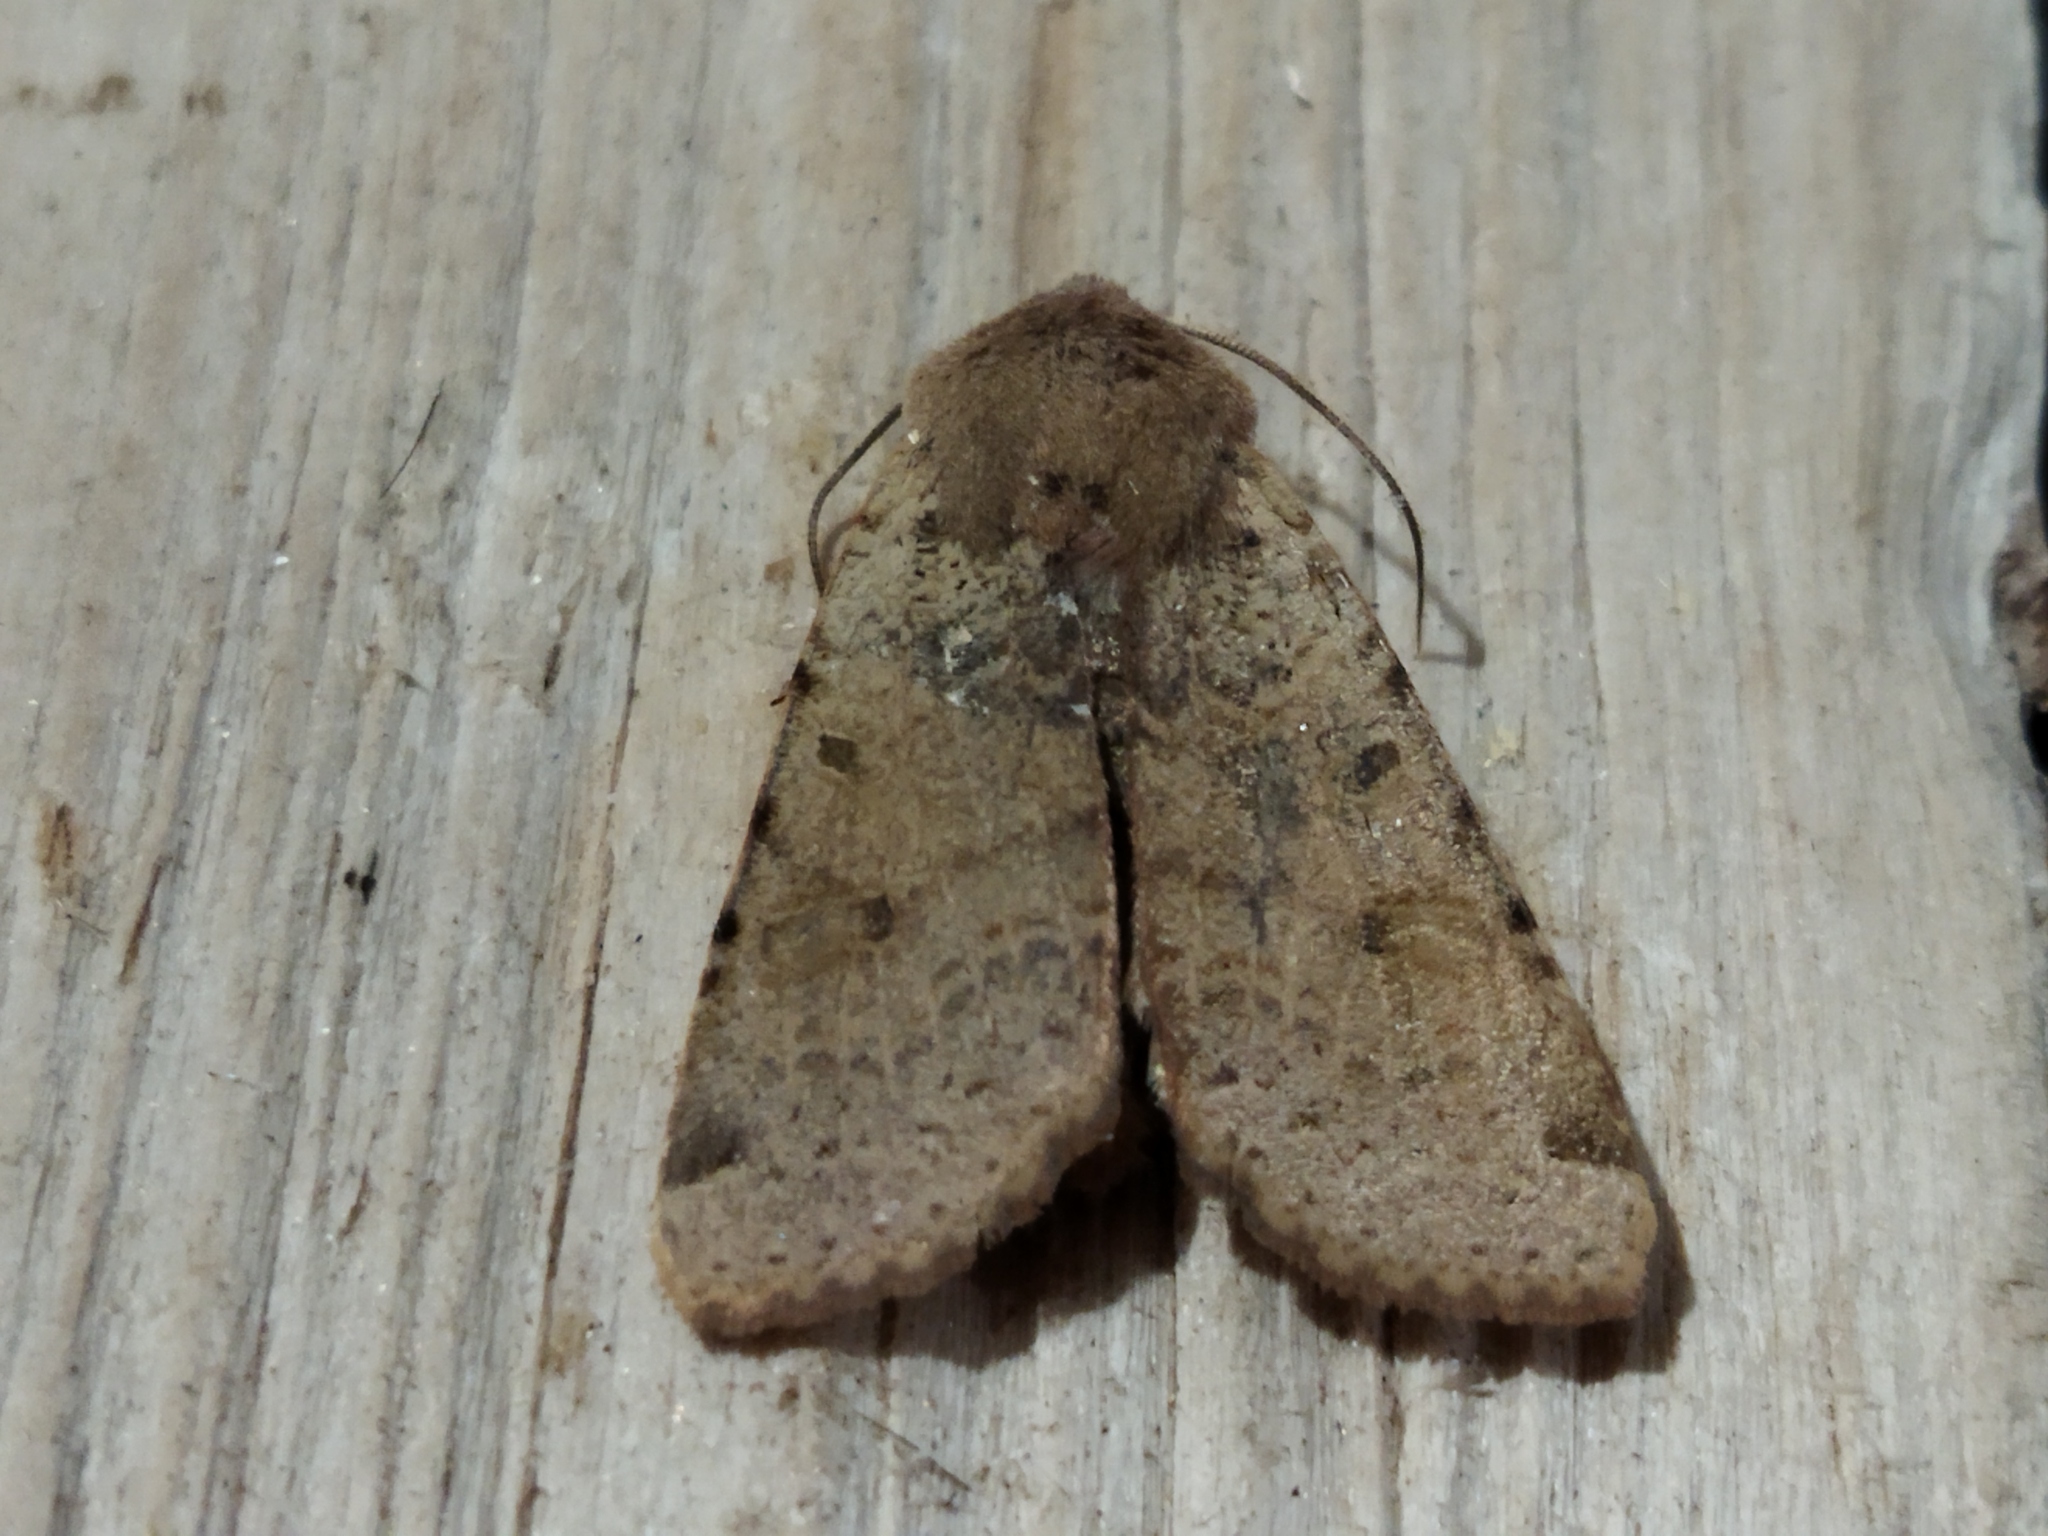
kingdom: Animalia
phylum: Arthropoda
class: Insecta
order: Lepidoptera
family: Noctuidae
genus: Agrochola
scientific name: Agrochola lychnidis
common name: Beaded chestnut
